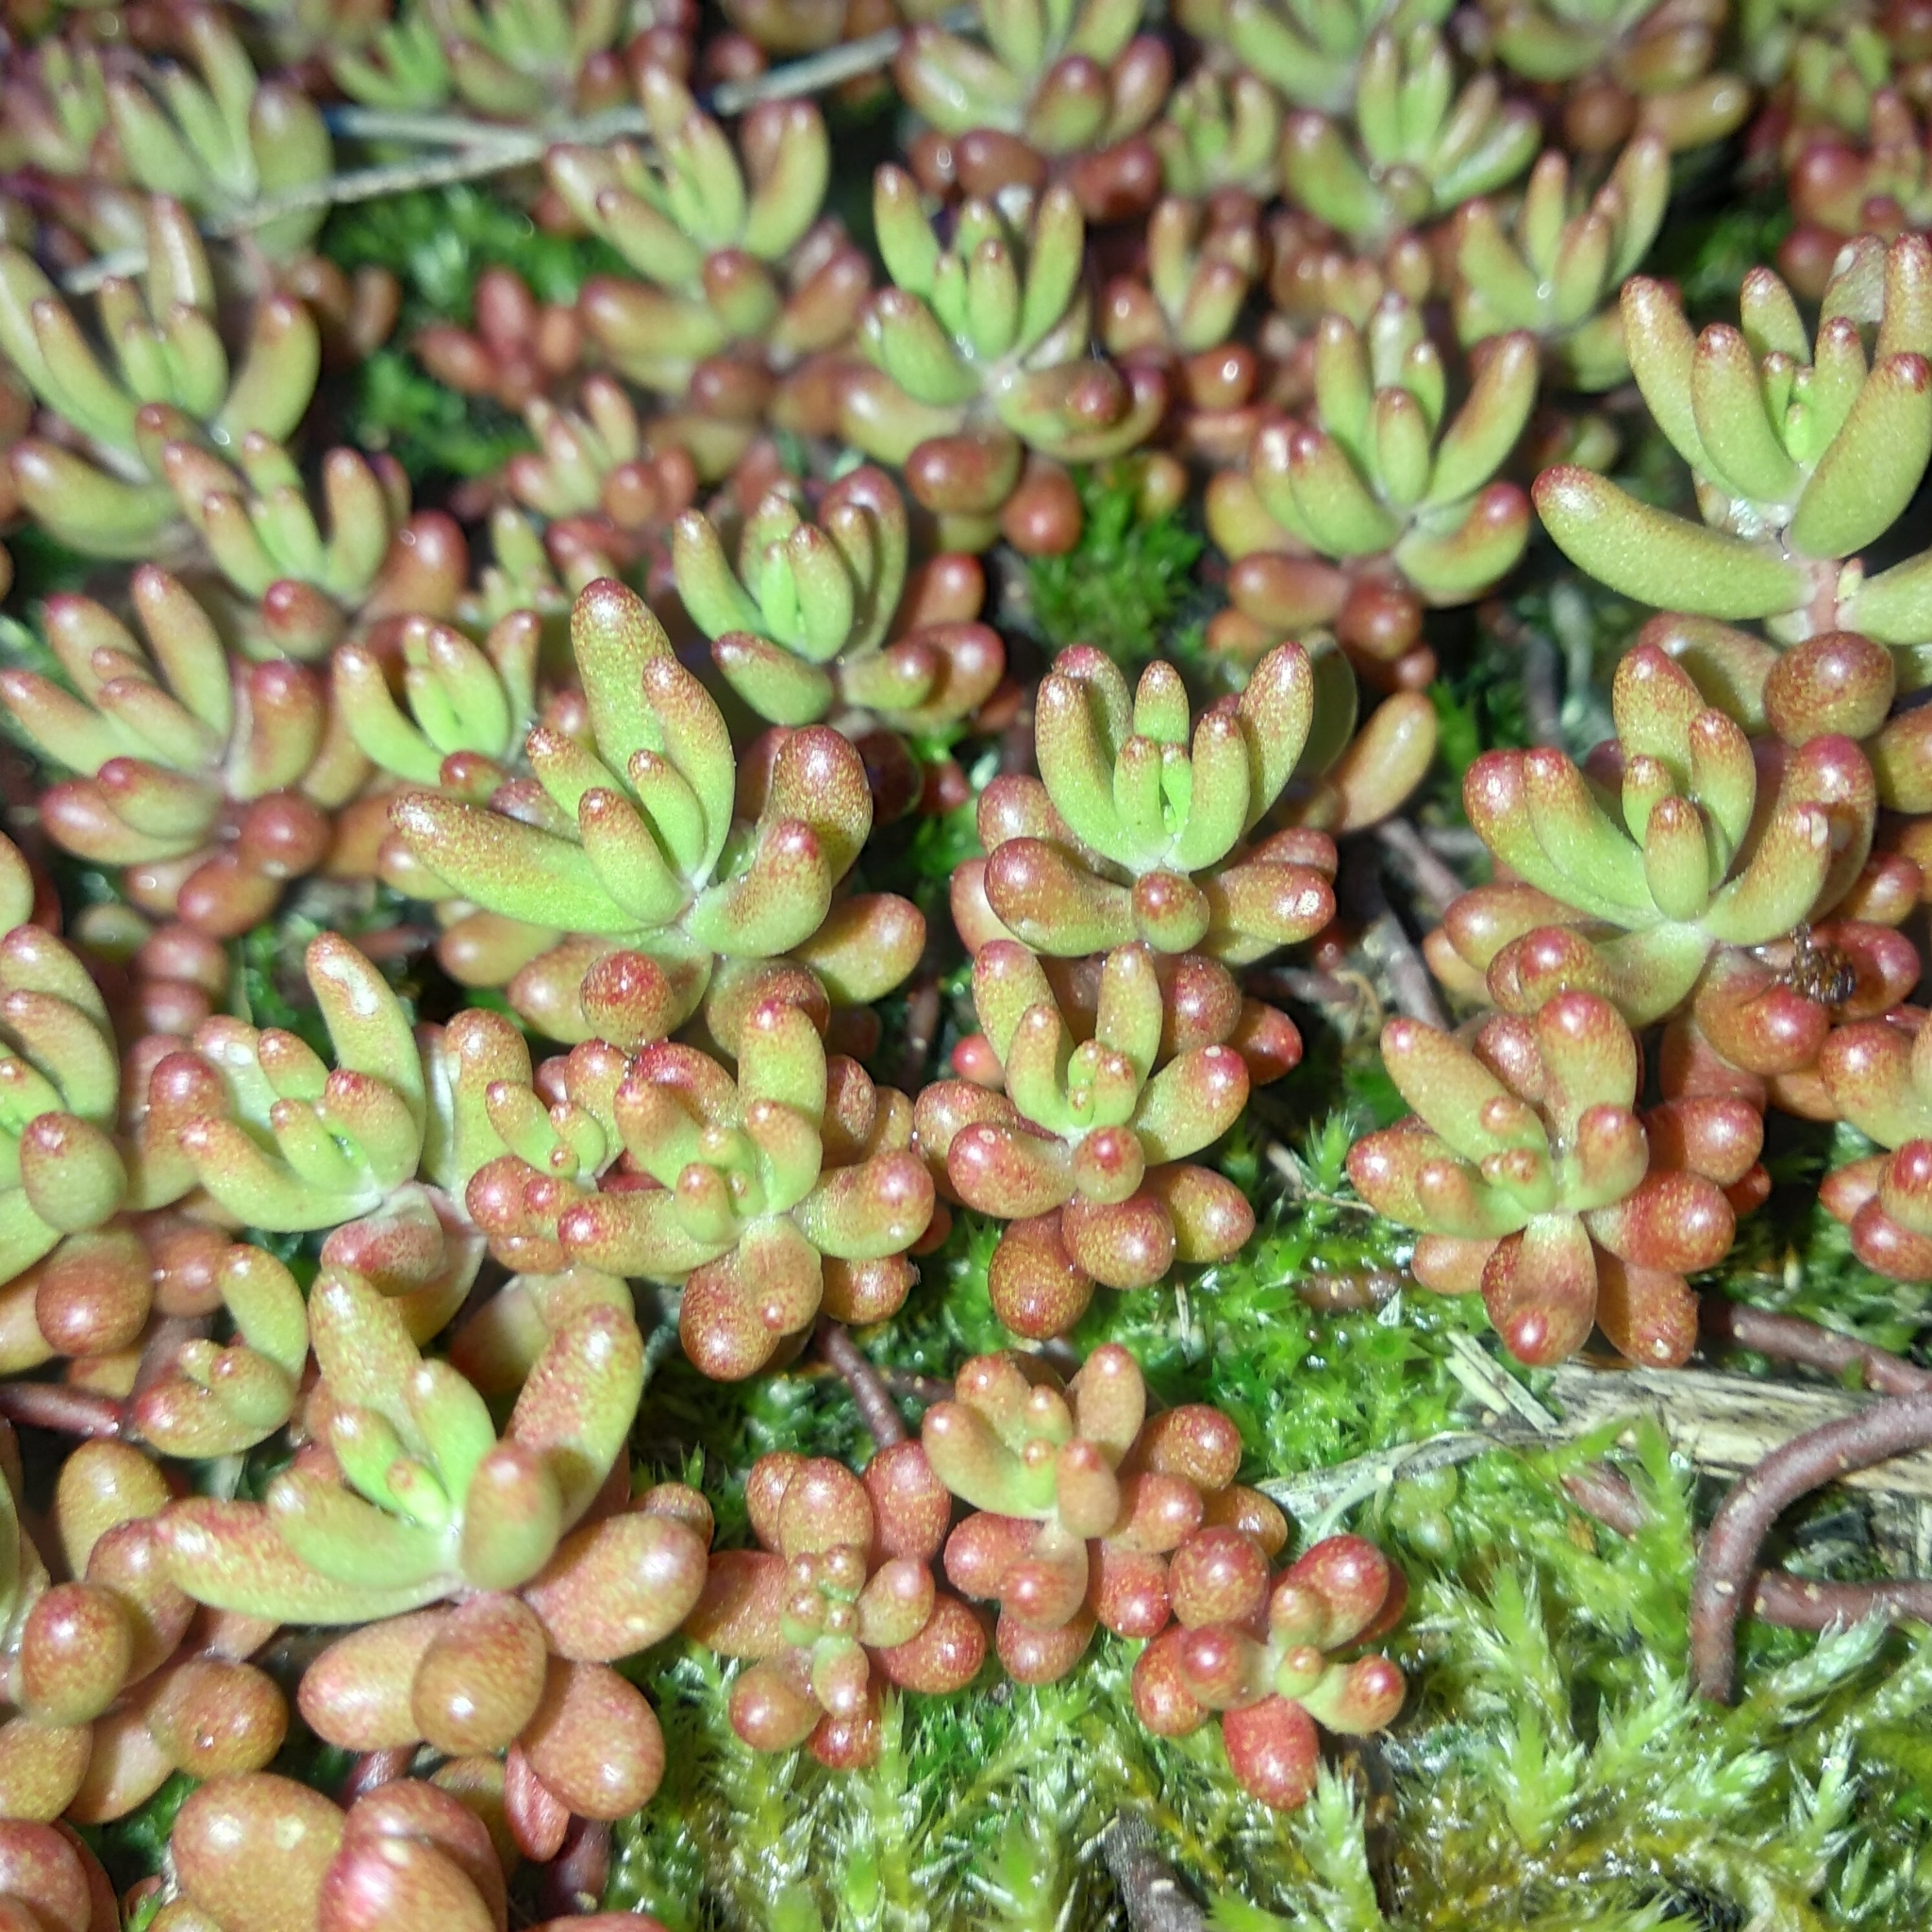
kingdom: Plantae
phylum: Tracheophyta
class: Magnoliopsida
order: Saxifragales
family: Crassulaceae
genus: Sedum
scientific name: Sedum album
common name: White stonecrop
